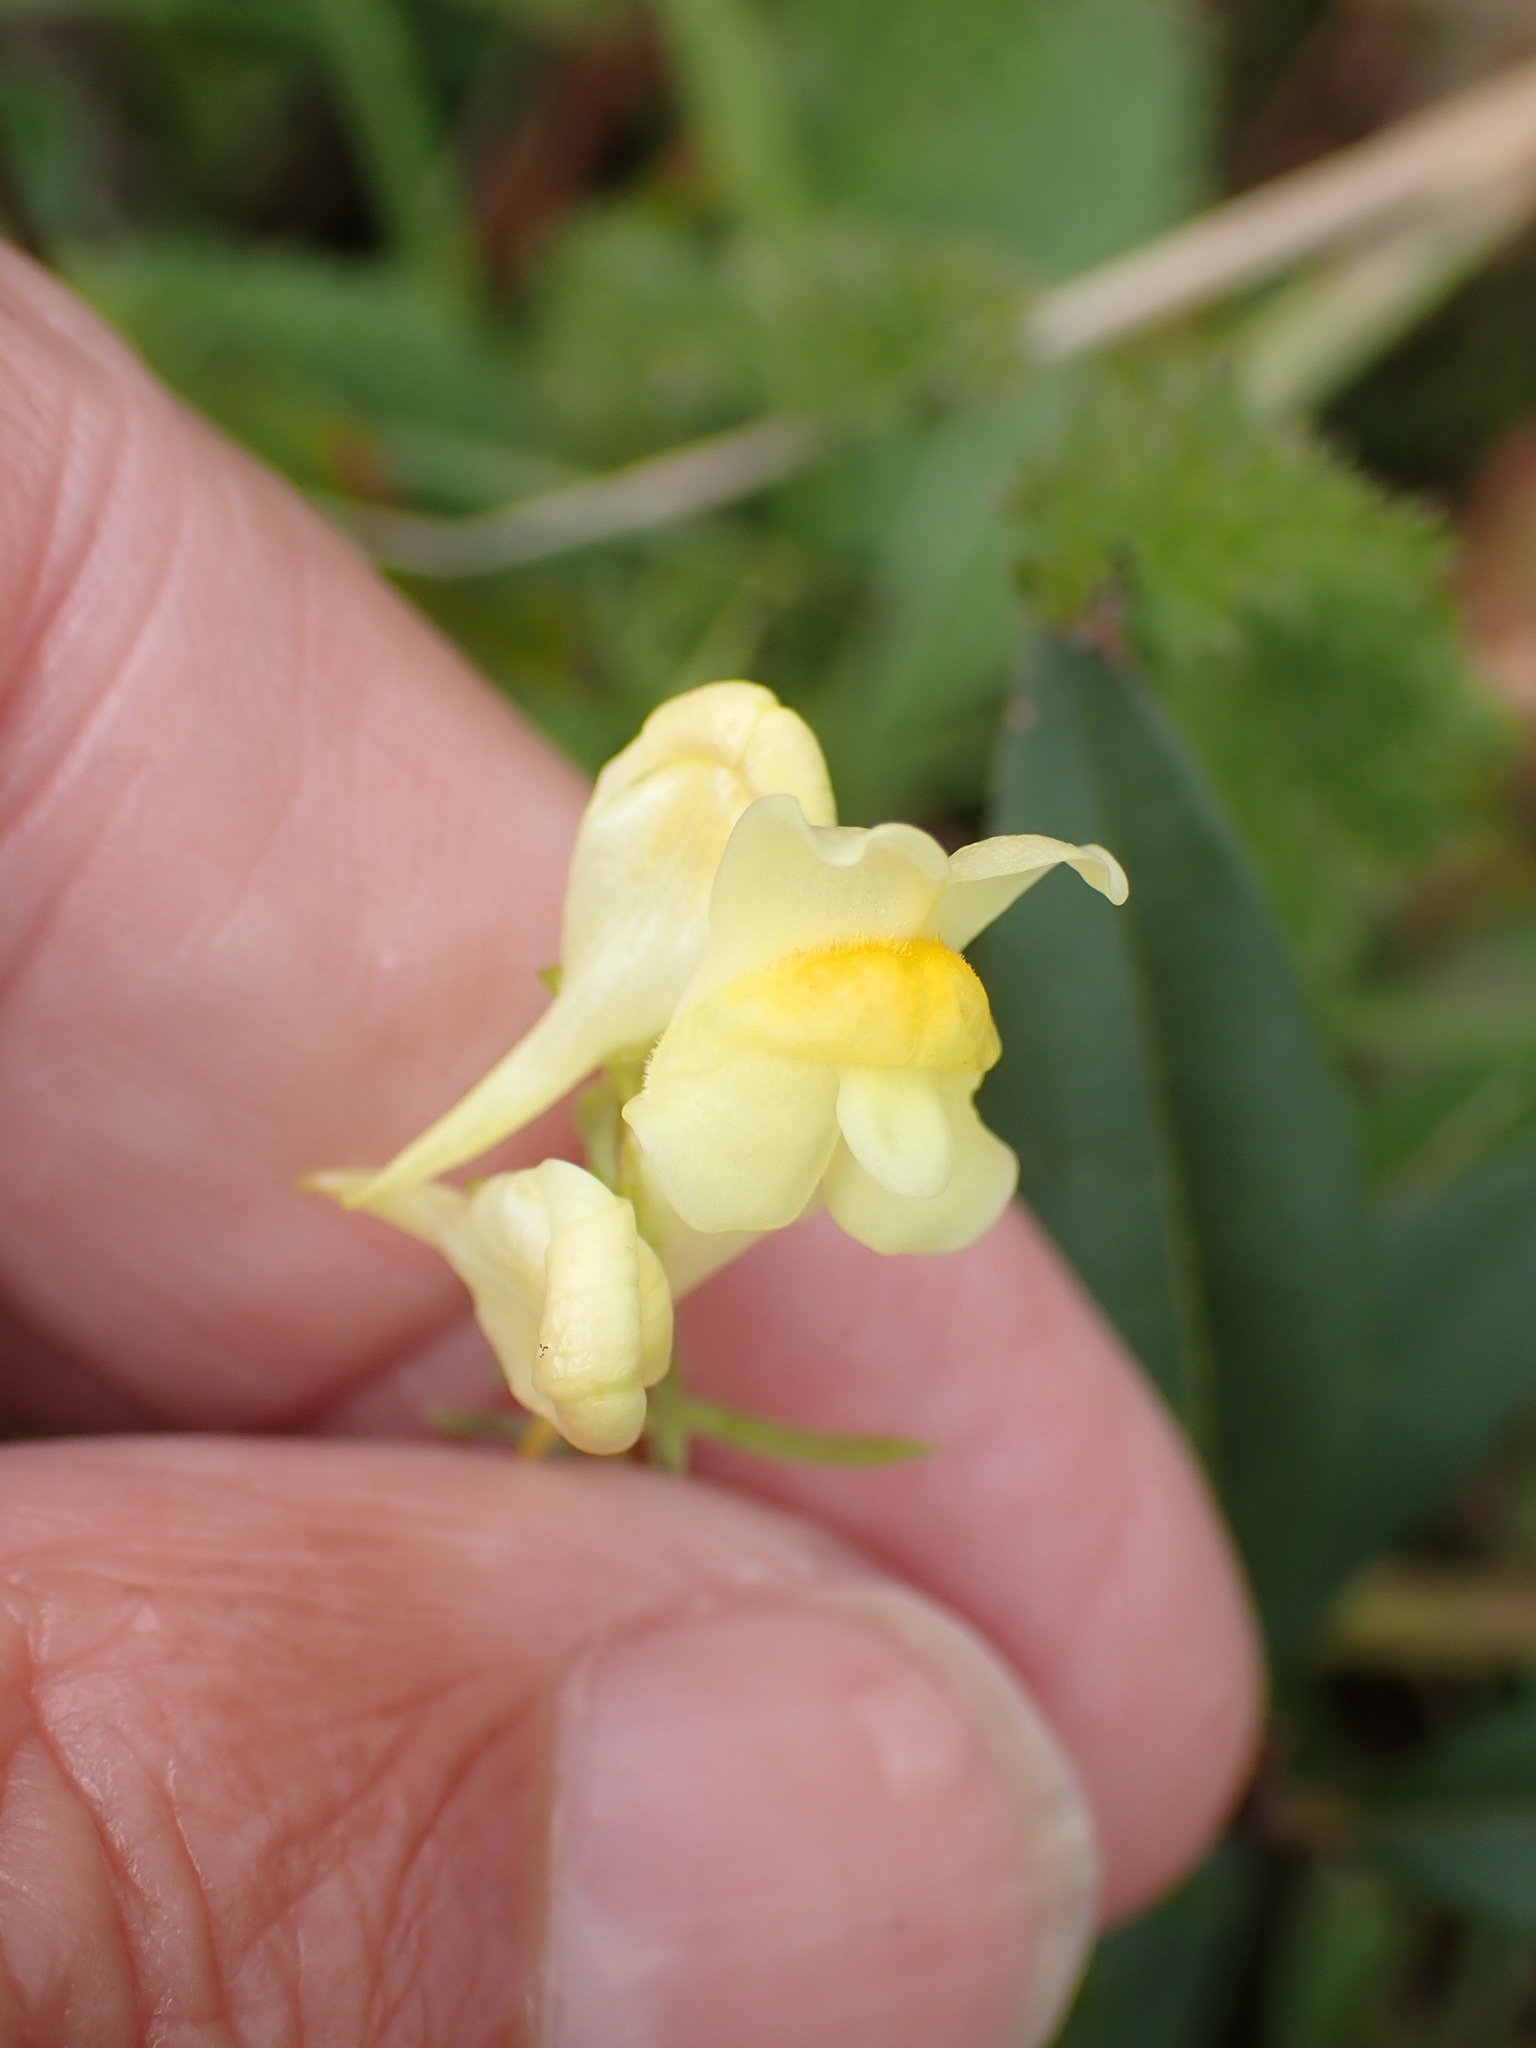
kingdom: Plantae
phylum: Tracheophyta
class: Magnoliopsida
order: Lamiales
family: Plantaginaceae
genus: Linaria
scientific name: Linaria vulgaris
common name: Butter and eggs
